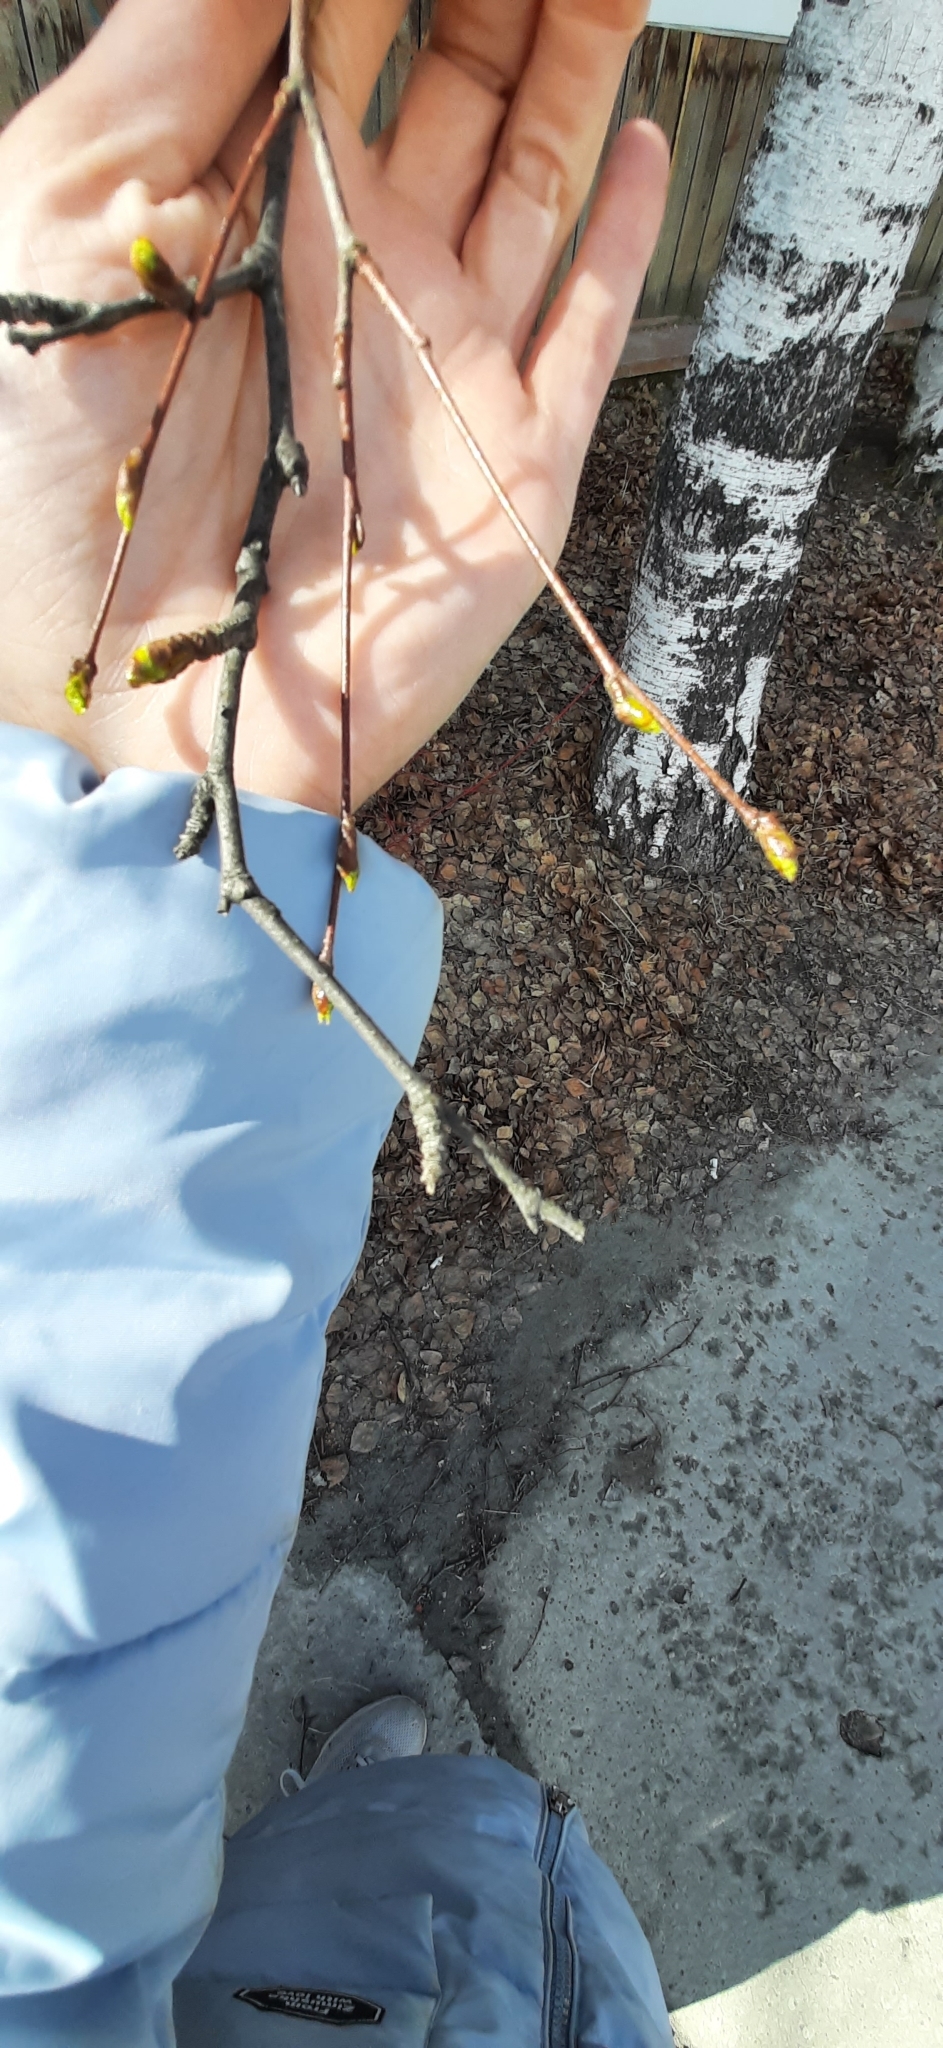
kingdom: Plantae
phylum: Tracheophyta
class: Magnoliopsida
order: Fagales
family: Betulaceae
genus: Betula
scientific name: Betula pendula
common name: Silver birch
